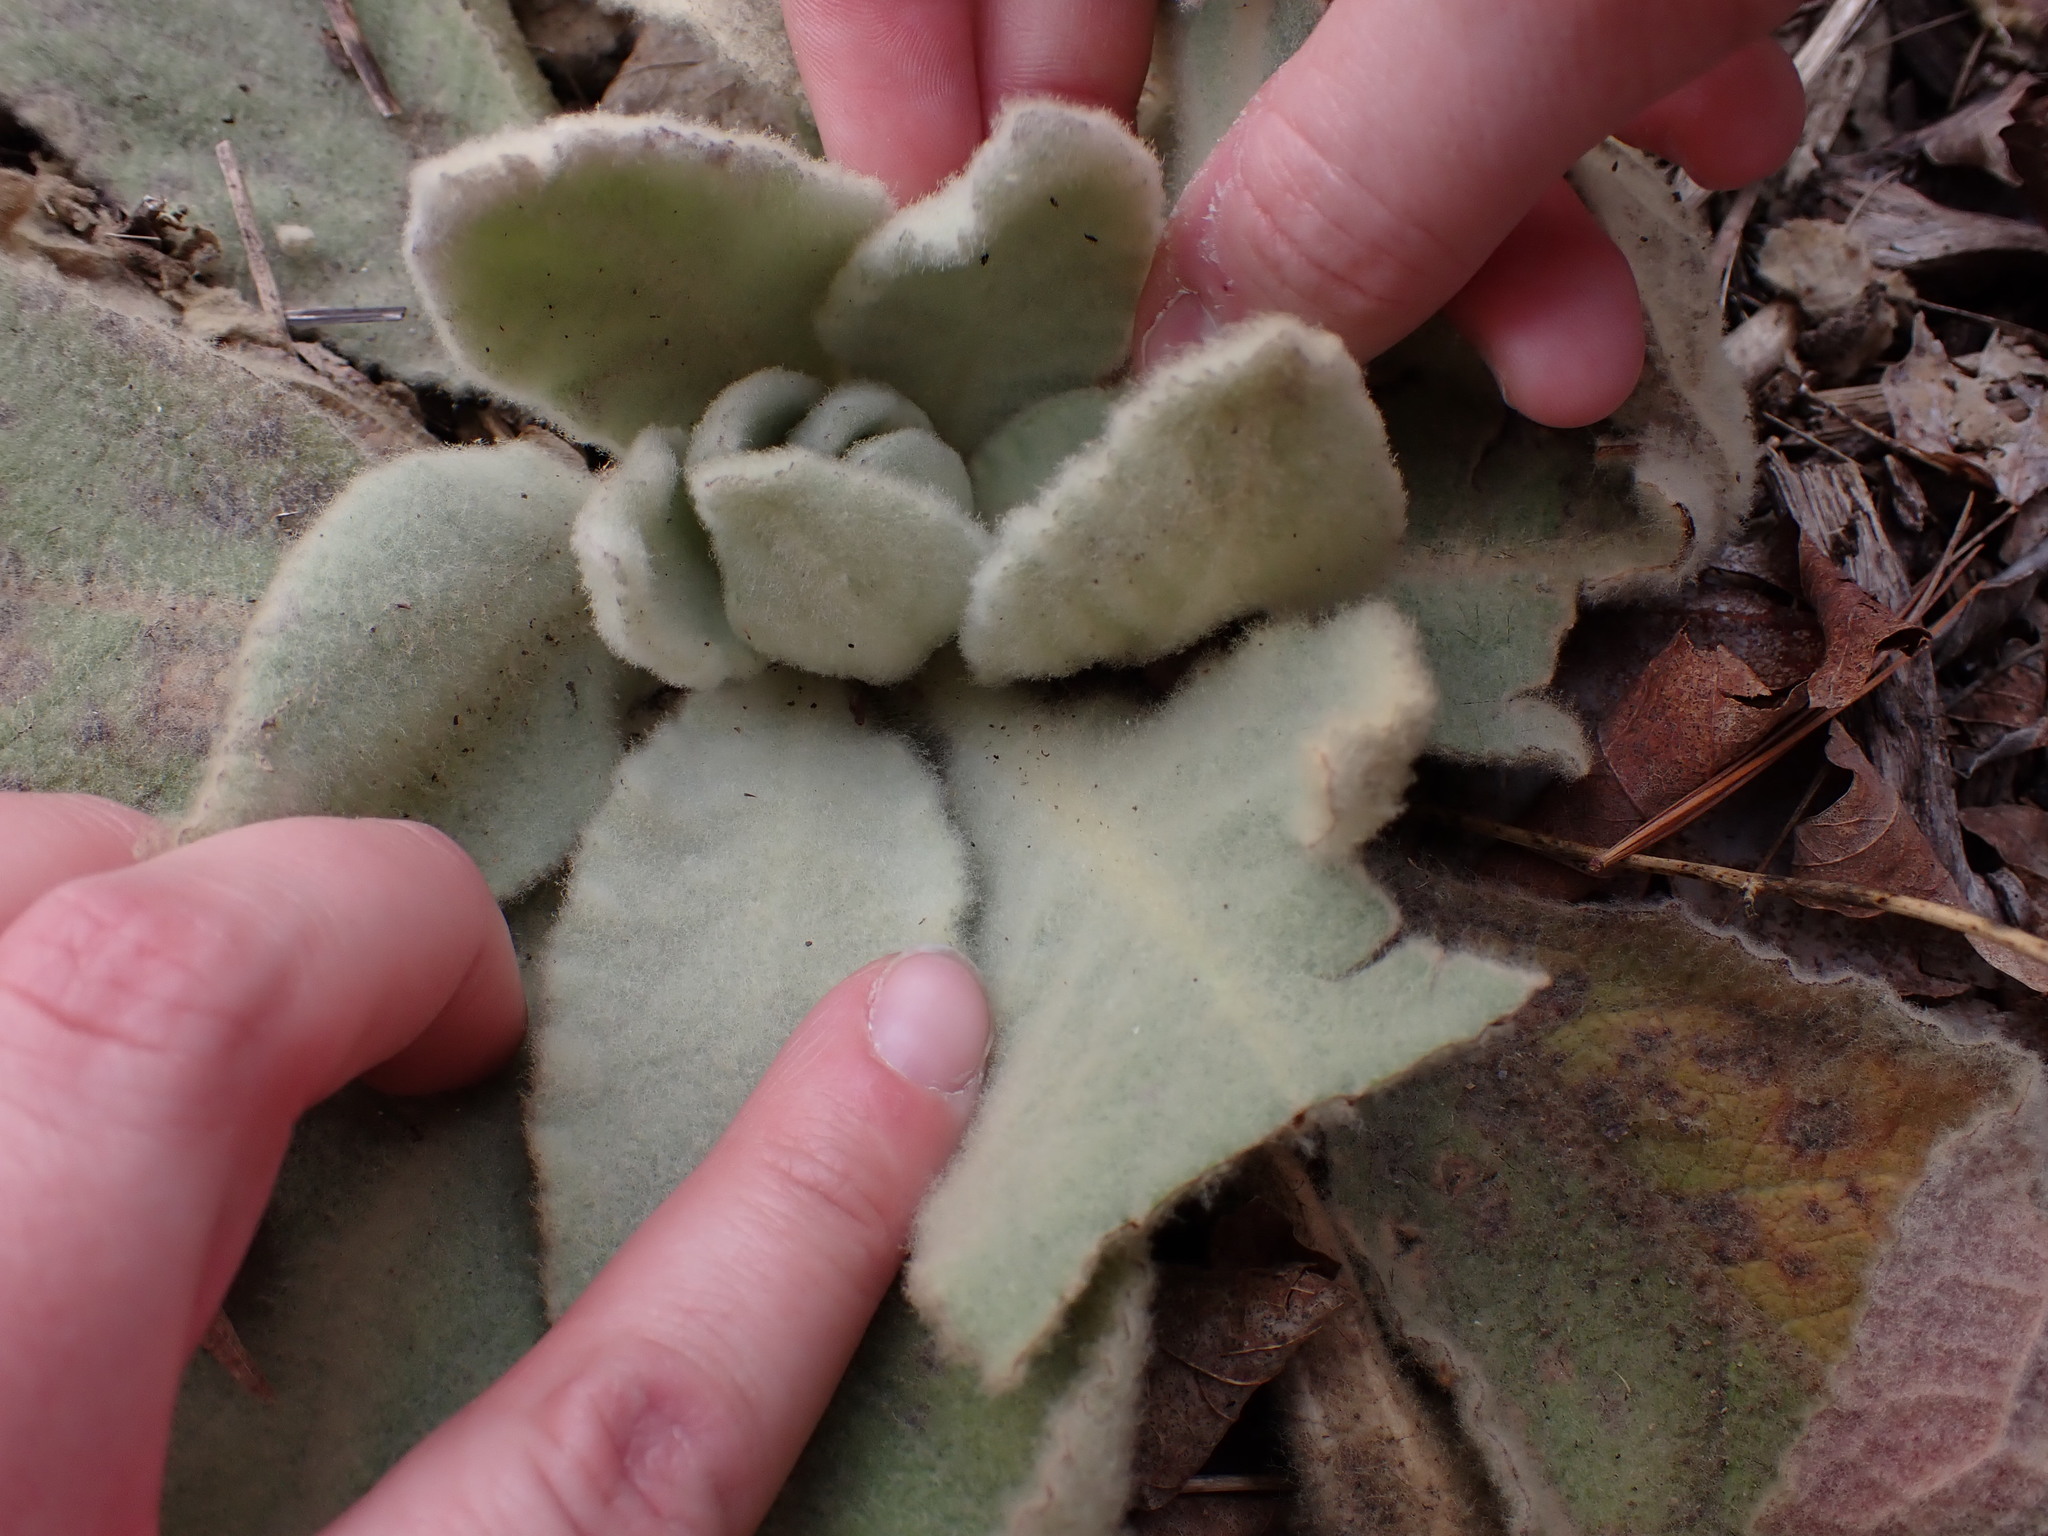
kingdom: Plantae
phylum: Tracheophyta
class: Magnoliopsida
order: Lamiales
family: Scrophulariaceae
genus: Verbascum
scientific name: Verbascum thapsus
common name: Common mullein
